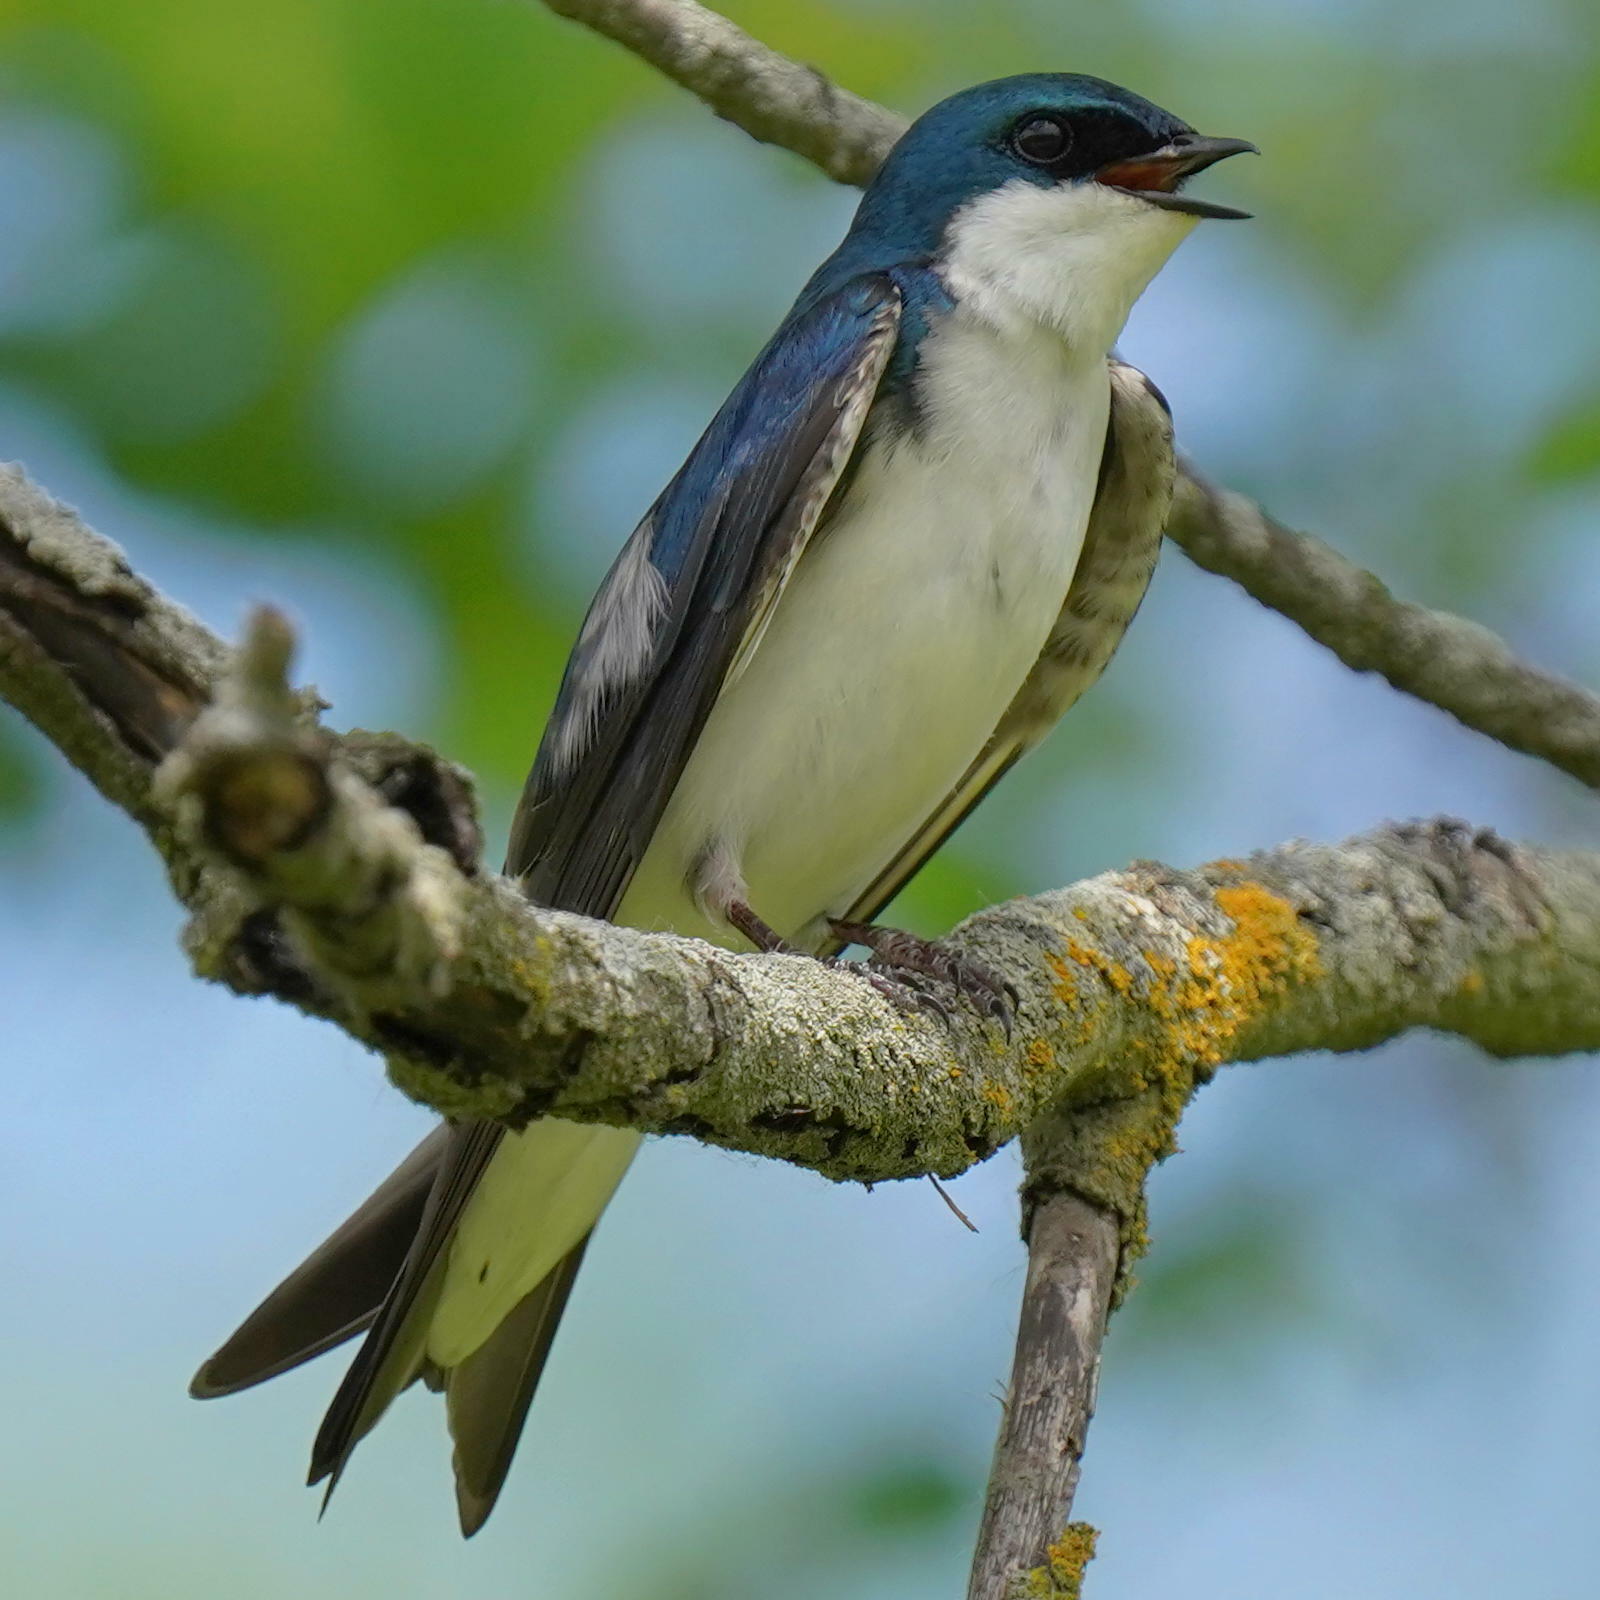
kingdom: Animalia
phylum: Chordata
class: Aves
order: Passeriformes
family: Hirundinidae
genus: Tachycineta
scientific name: Tachycineta bicolor
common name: Tree swallow
